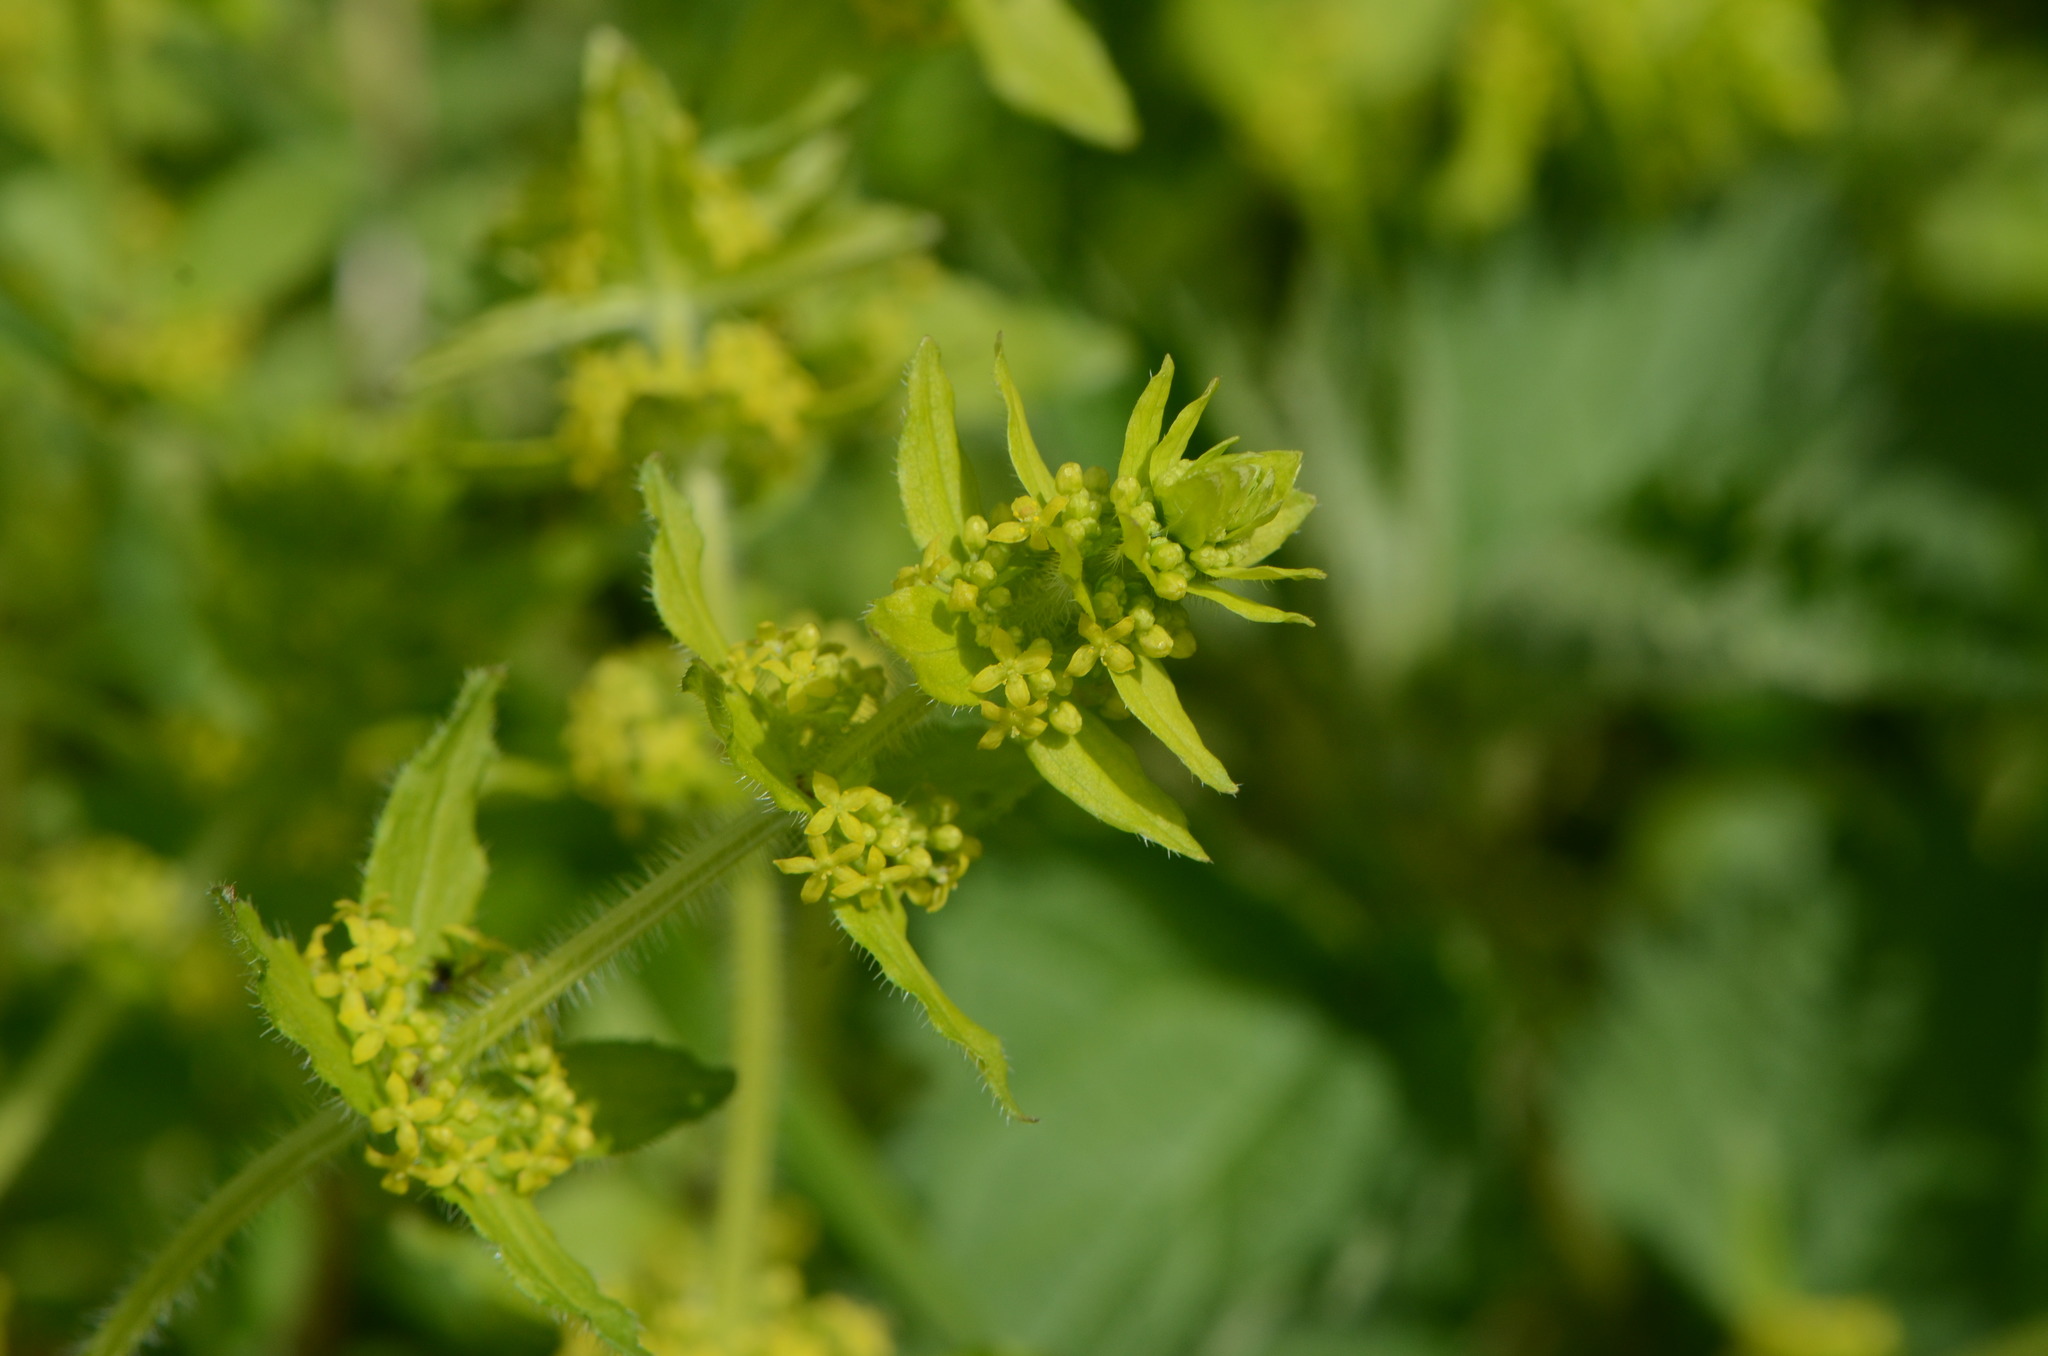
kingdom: Plantae
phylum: Tracheophyta
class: Magnoliopsida
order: Gentianales
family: Rubiaceae
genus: Cruciata
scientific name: Cruciata laevipes
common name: Crosswort
